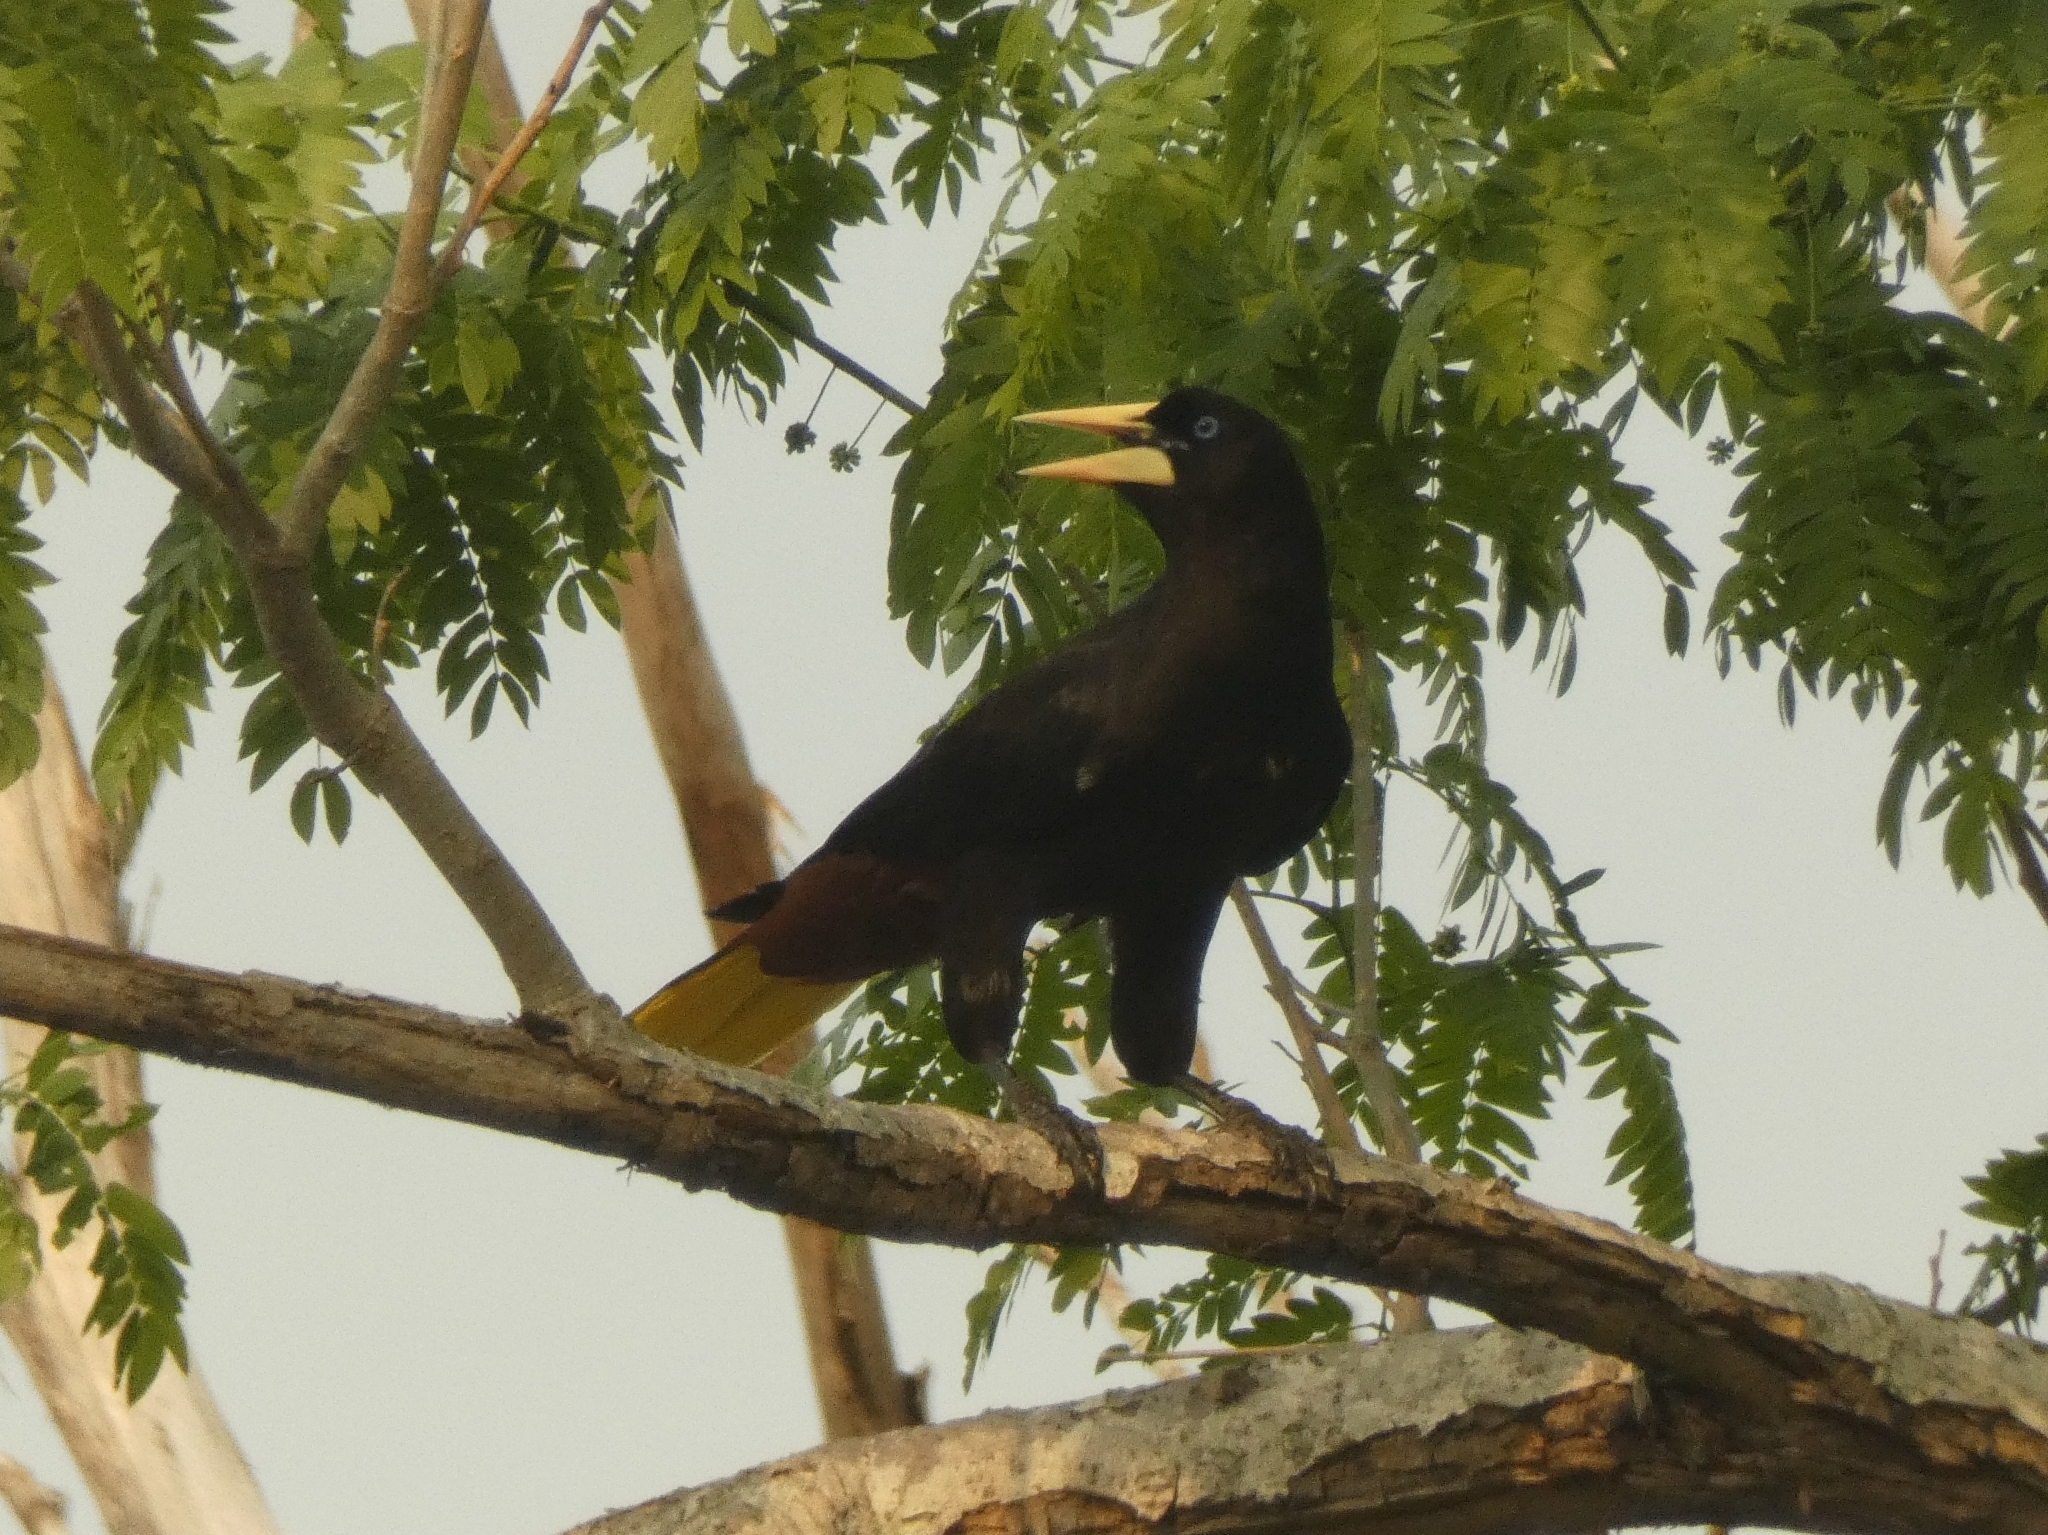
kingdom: Animalia
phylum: Chordata
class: Aves
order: Passeriformes
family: Icteridae
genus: Psarocolius
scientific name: Psarocolius decumanus
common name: Crested oropendola
